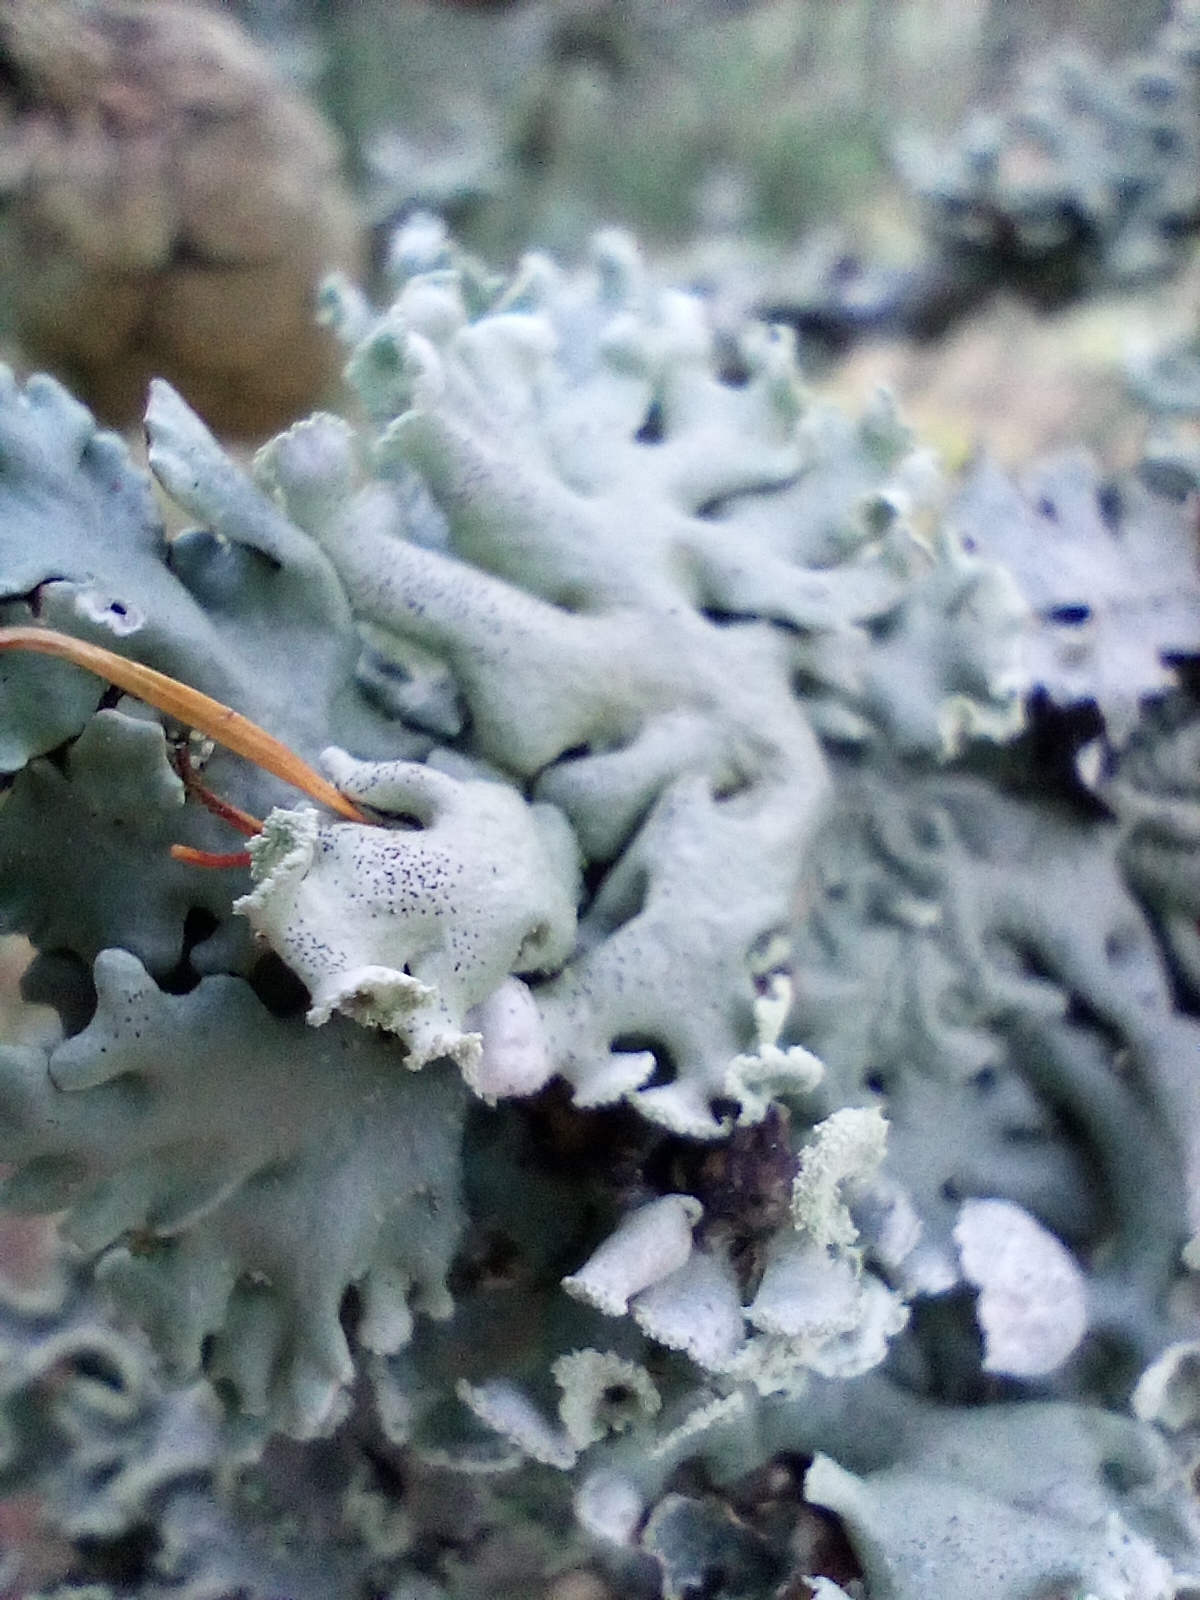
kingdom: Fungi
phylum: Ascomycota
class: Lecanoromycetes
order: Lecanorales
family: Parmeliaceae
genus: Hypogymnia
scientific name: Hypogymnia physodes
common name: Dark crottle
